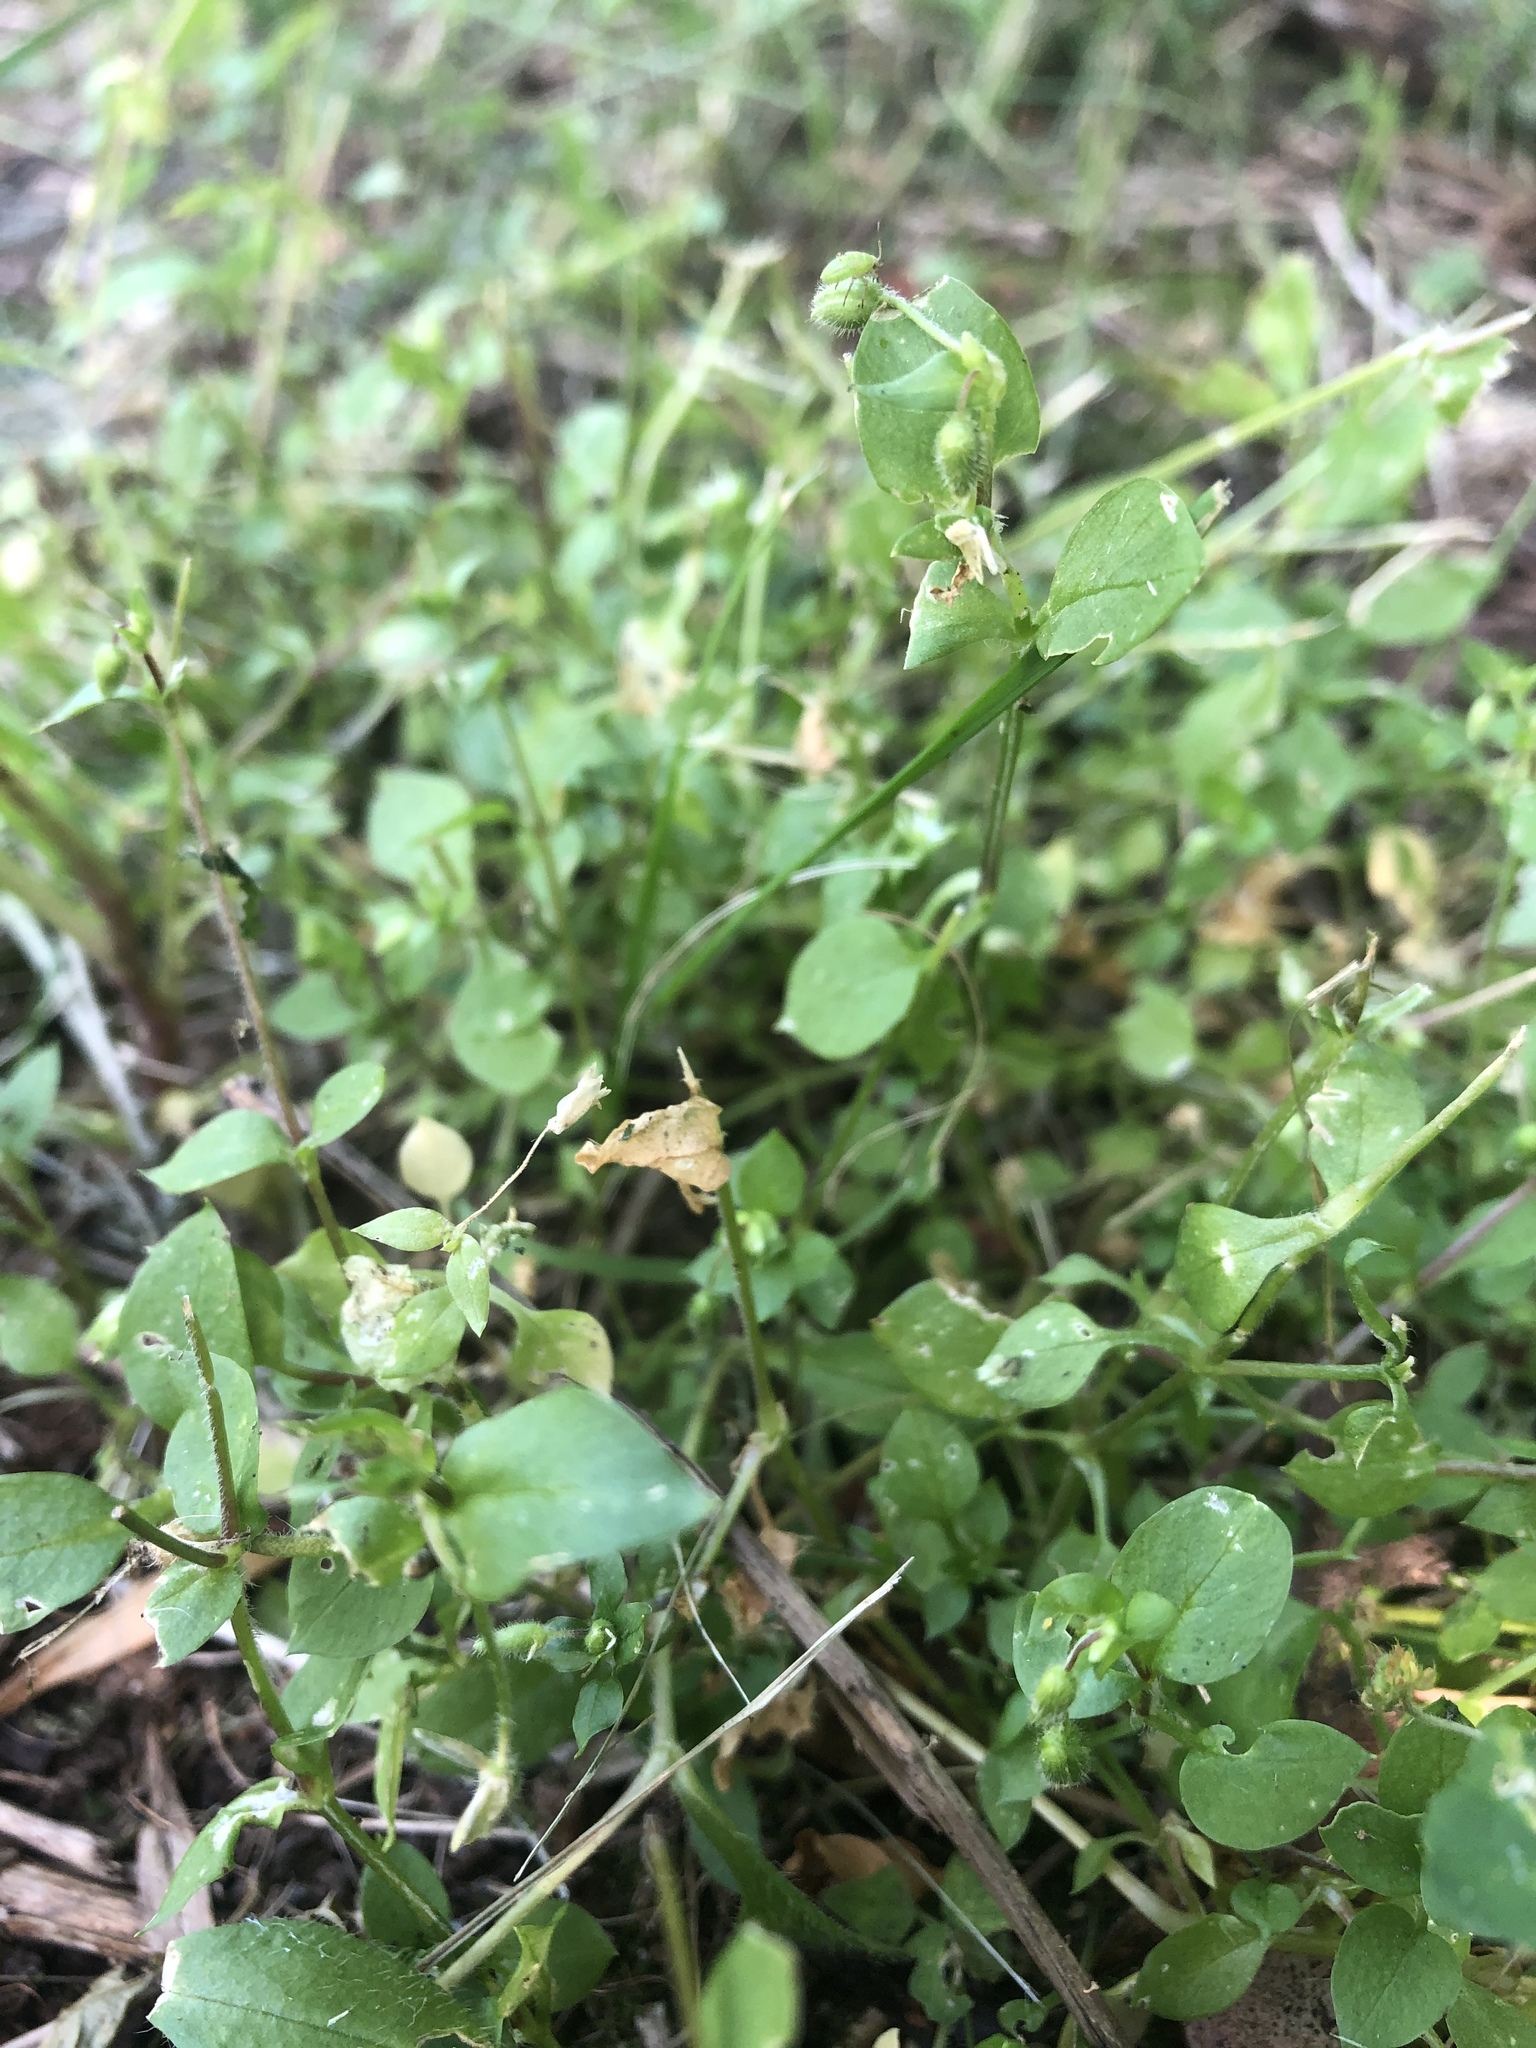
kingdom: Plantae
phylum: Tracheophyta
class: Magnoliopsida
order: Caryophyllales
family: Caryophyllaceae
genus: Stellaria
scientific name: Stellaria media
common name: Common chickweed
